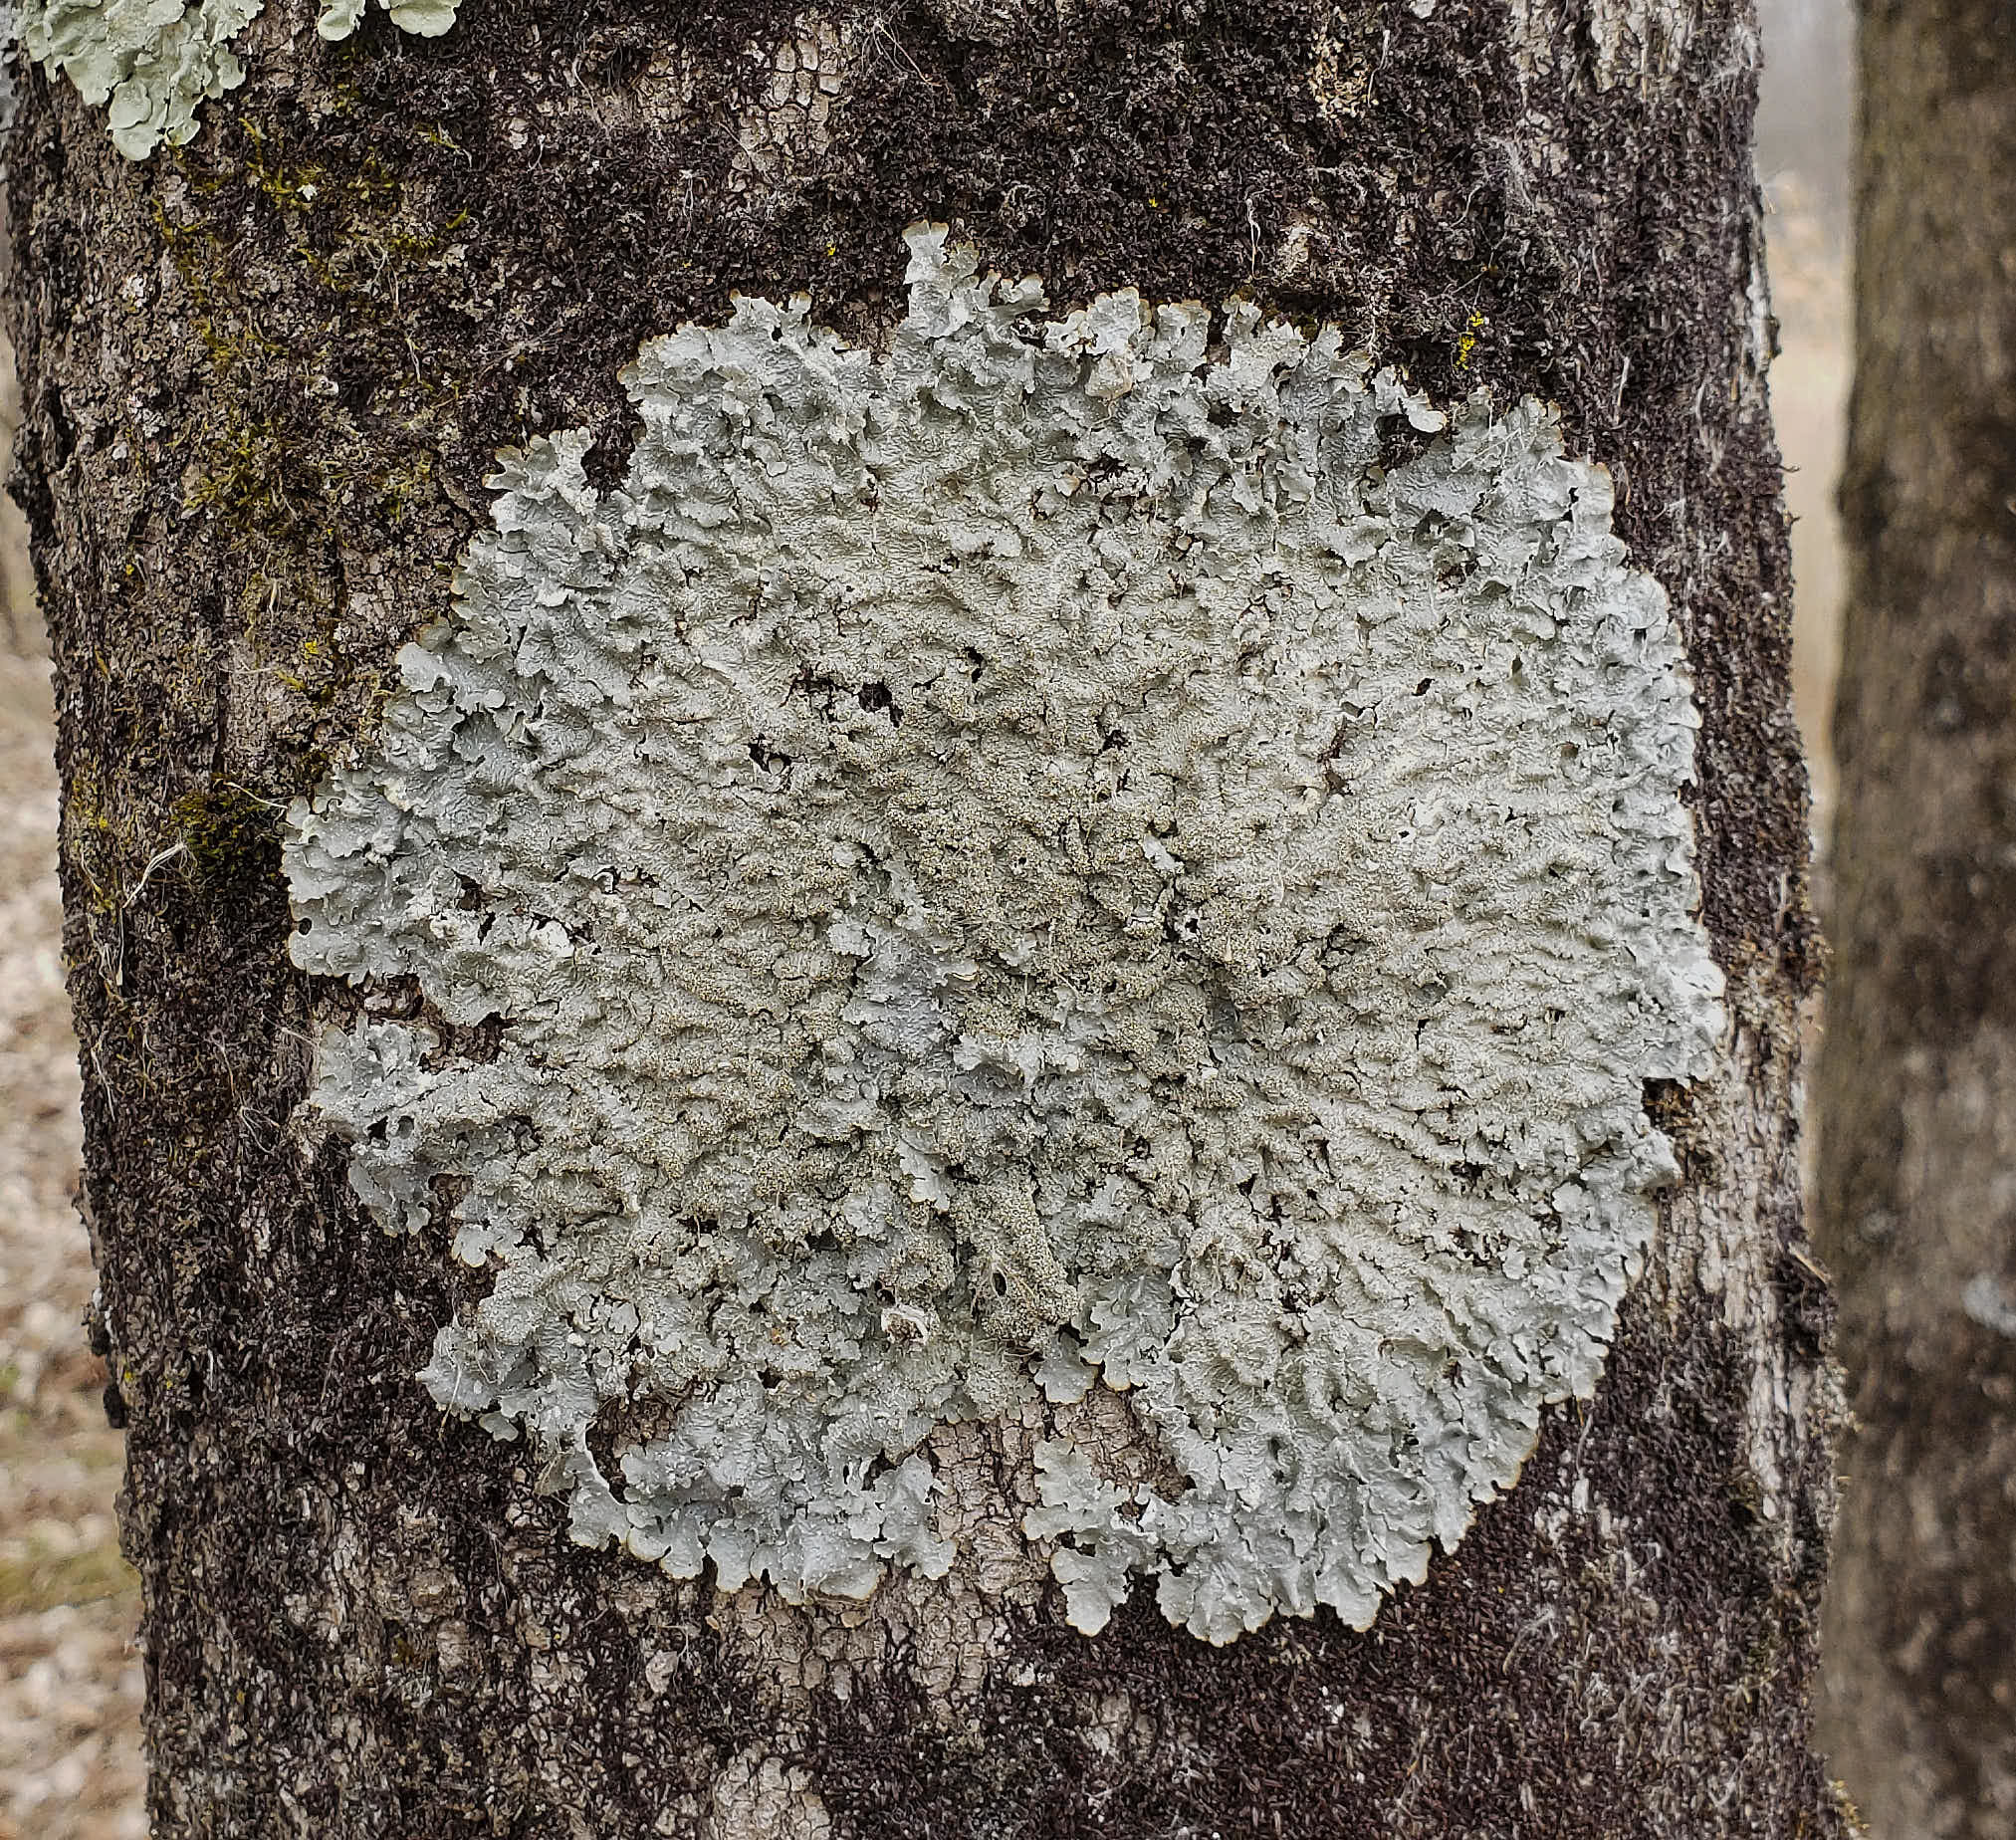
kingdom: Fungi
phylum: Ascomycota
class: Lecanoromycetes
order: Lecanorales
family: Parmeliaceae
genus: Punctelia
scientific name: Punctelia rudecta
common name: Rough speckled shield lichen
